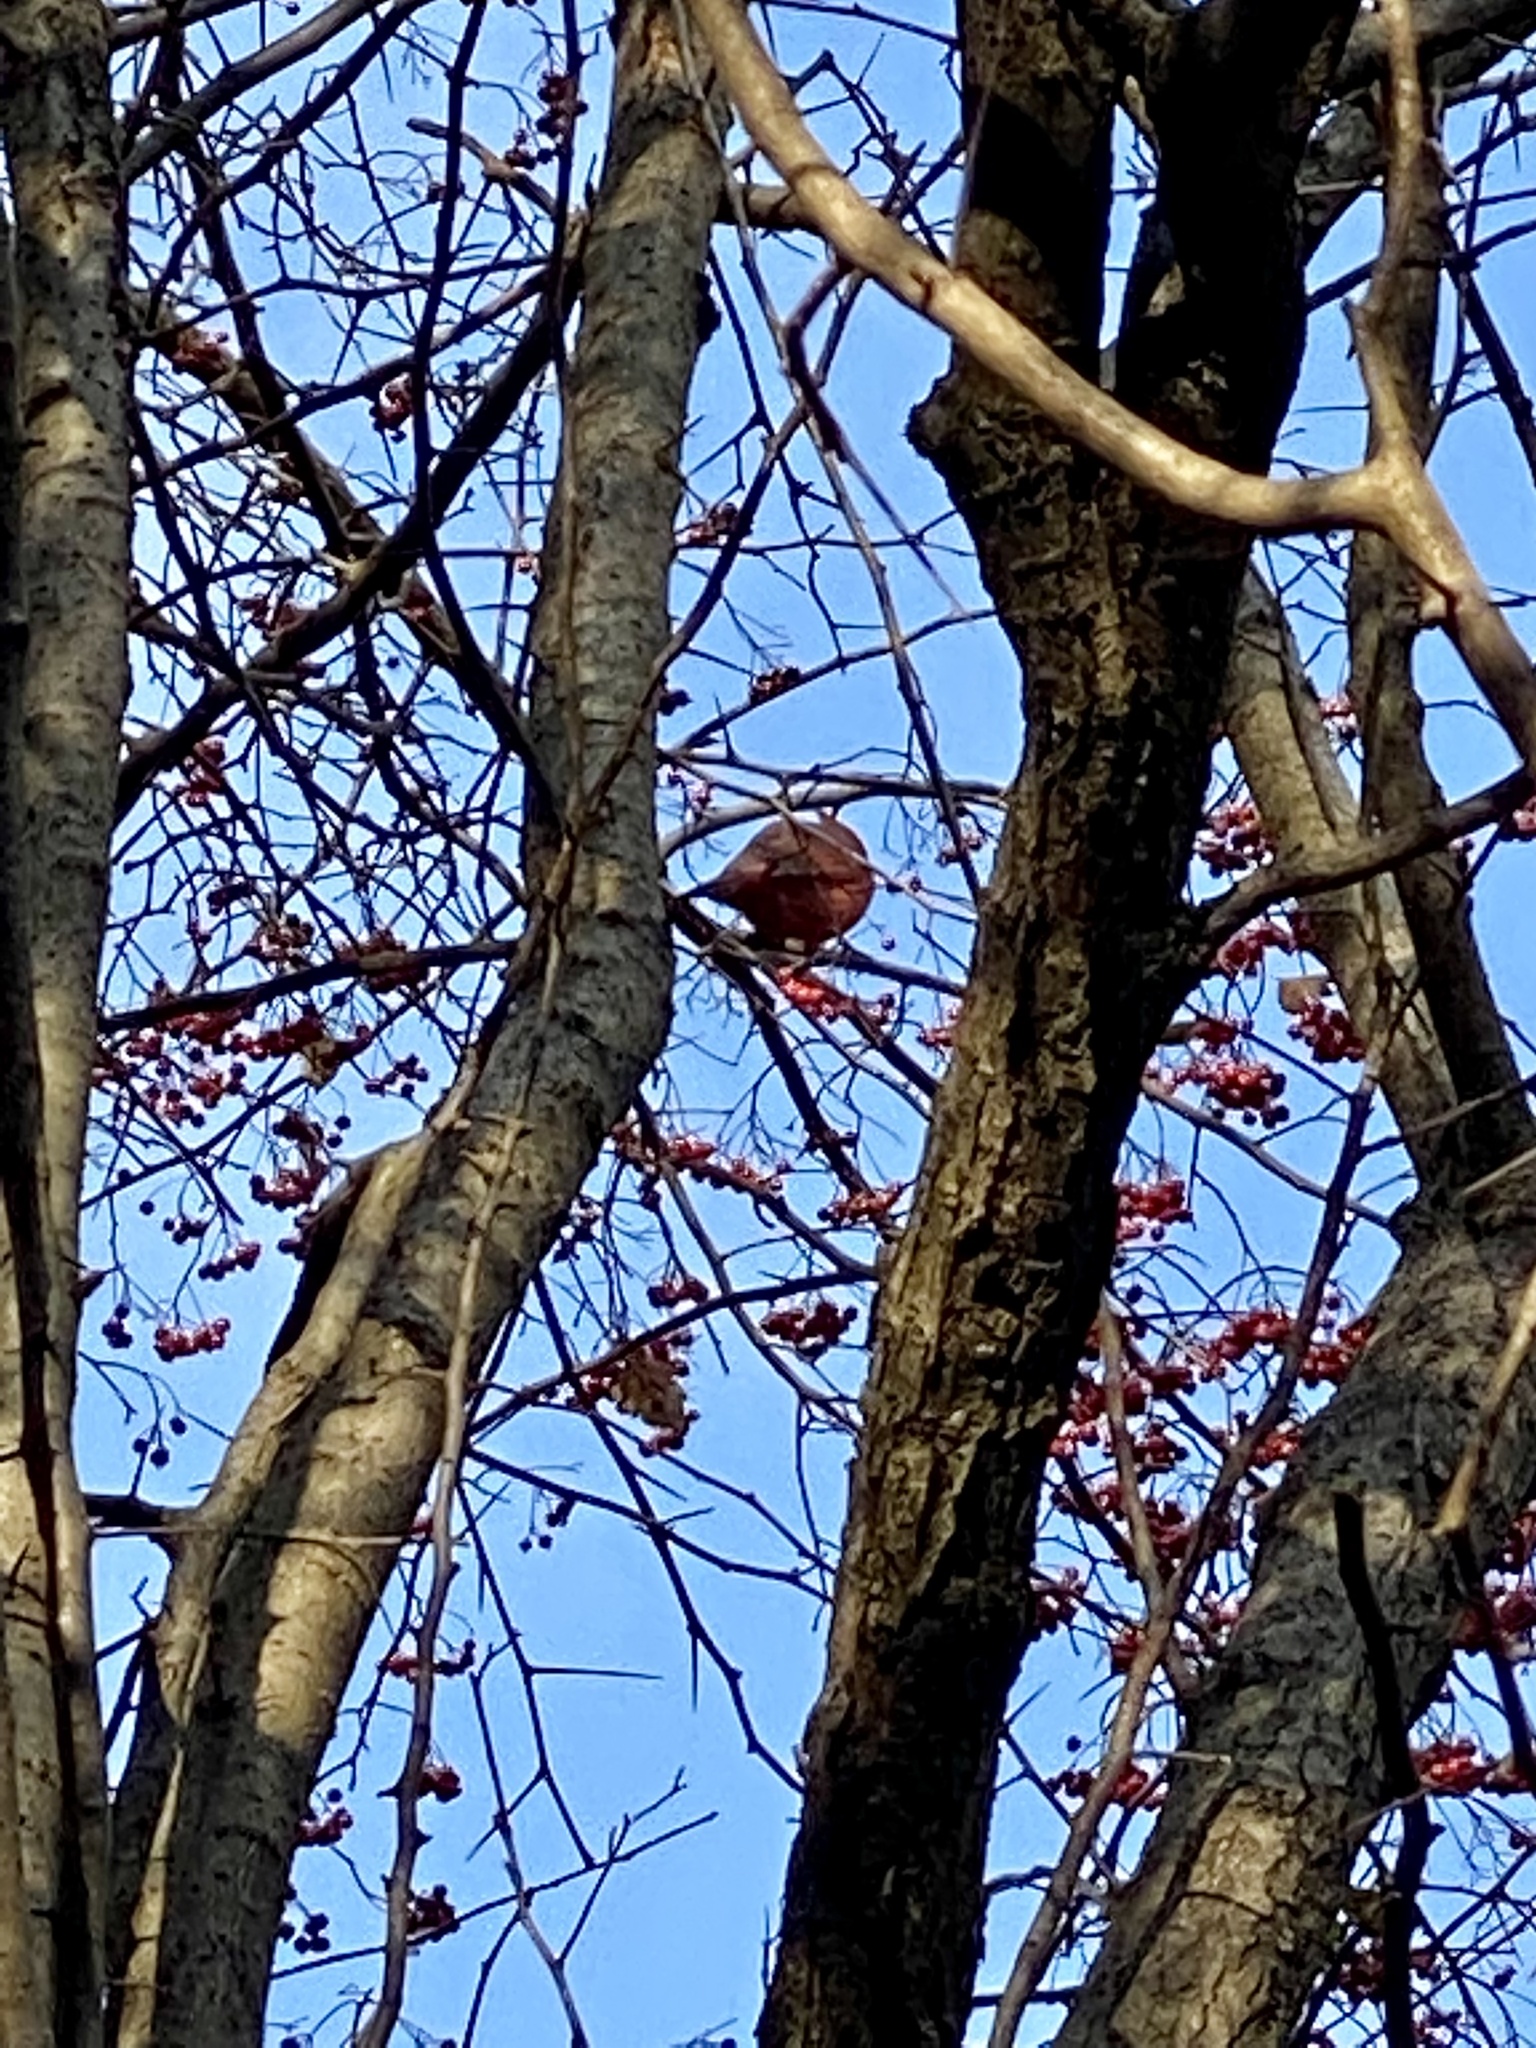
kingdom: Animalia
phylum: Chordata
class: Aves
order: Passeriformes
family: Cardinalidae
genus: Cardinalis
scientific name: Cardinalis cardinalis
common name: Northern cardinal
